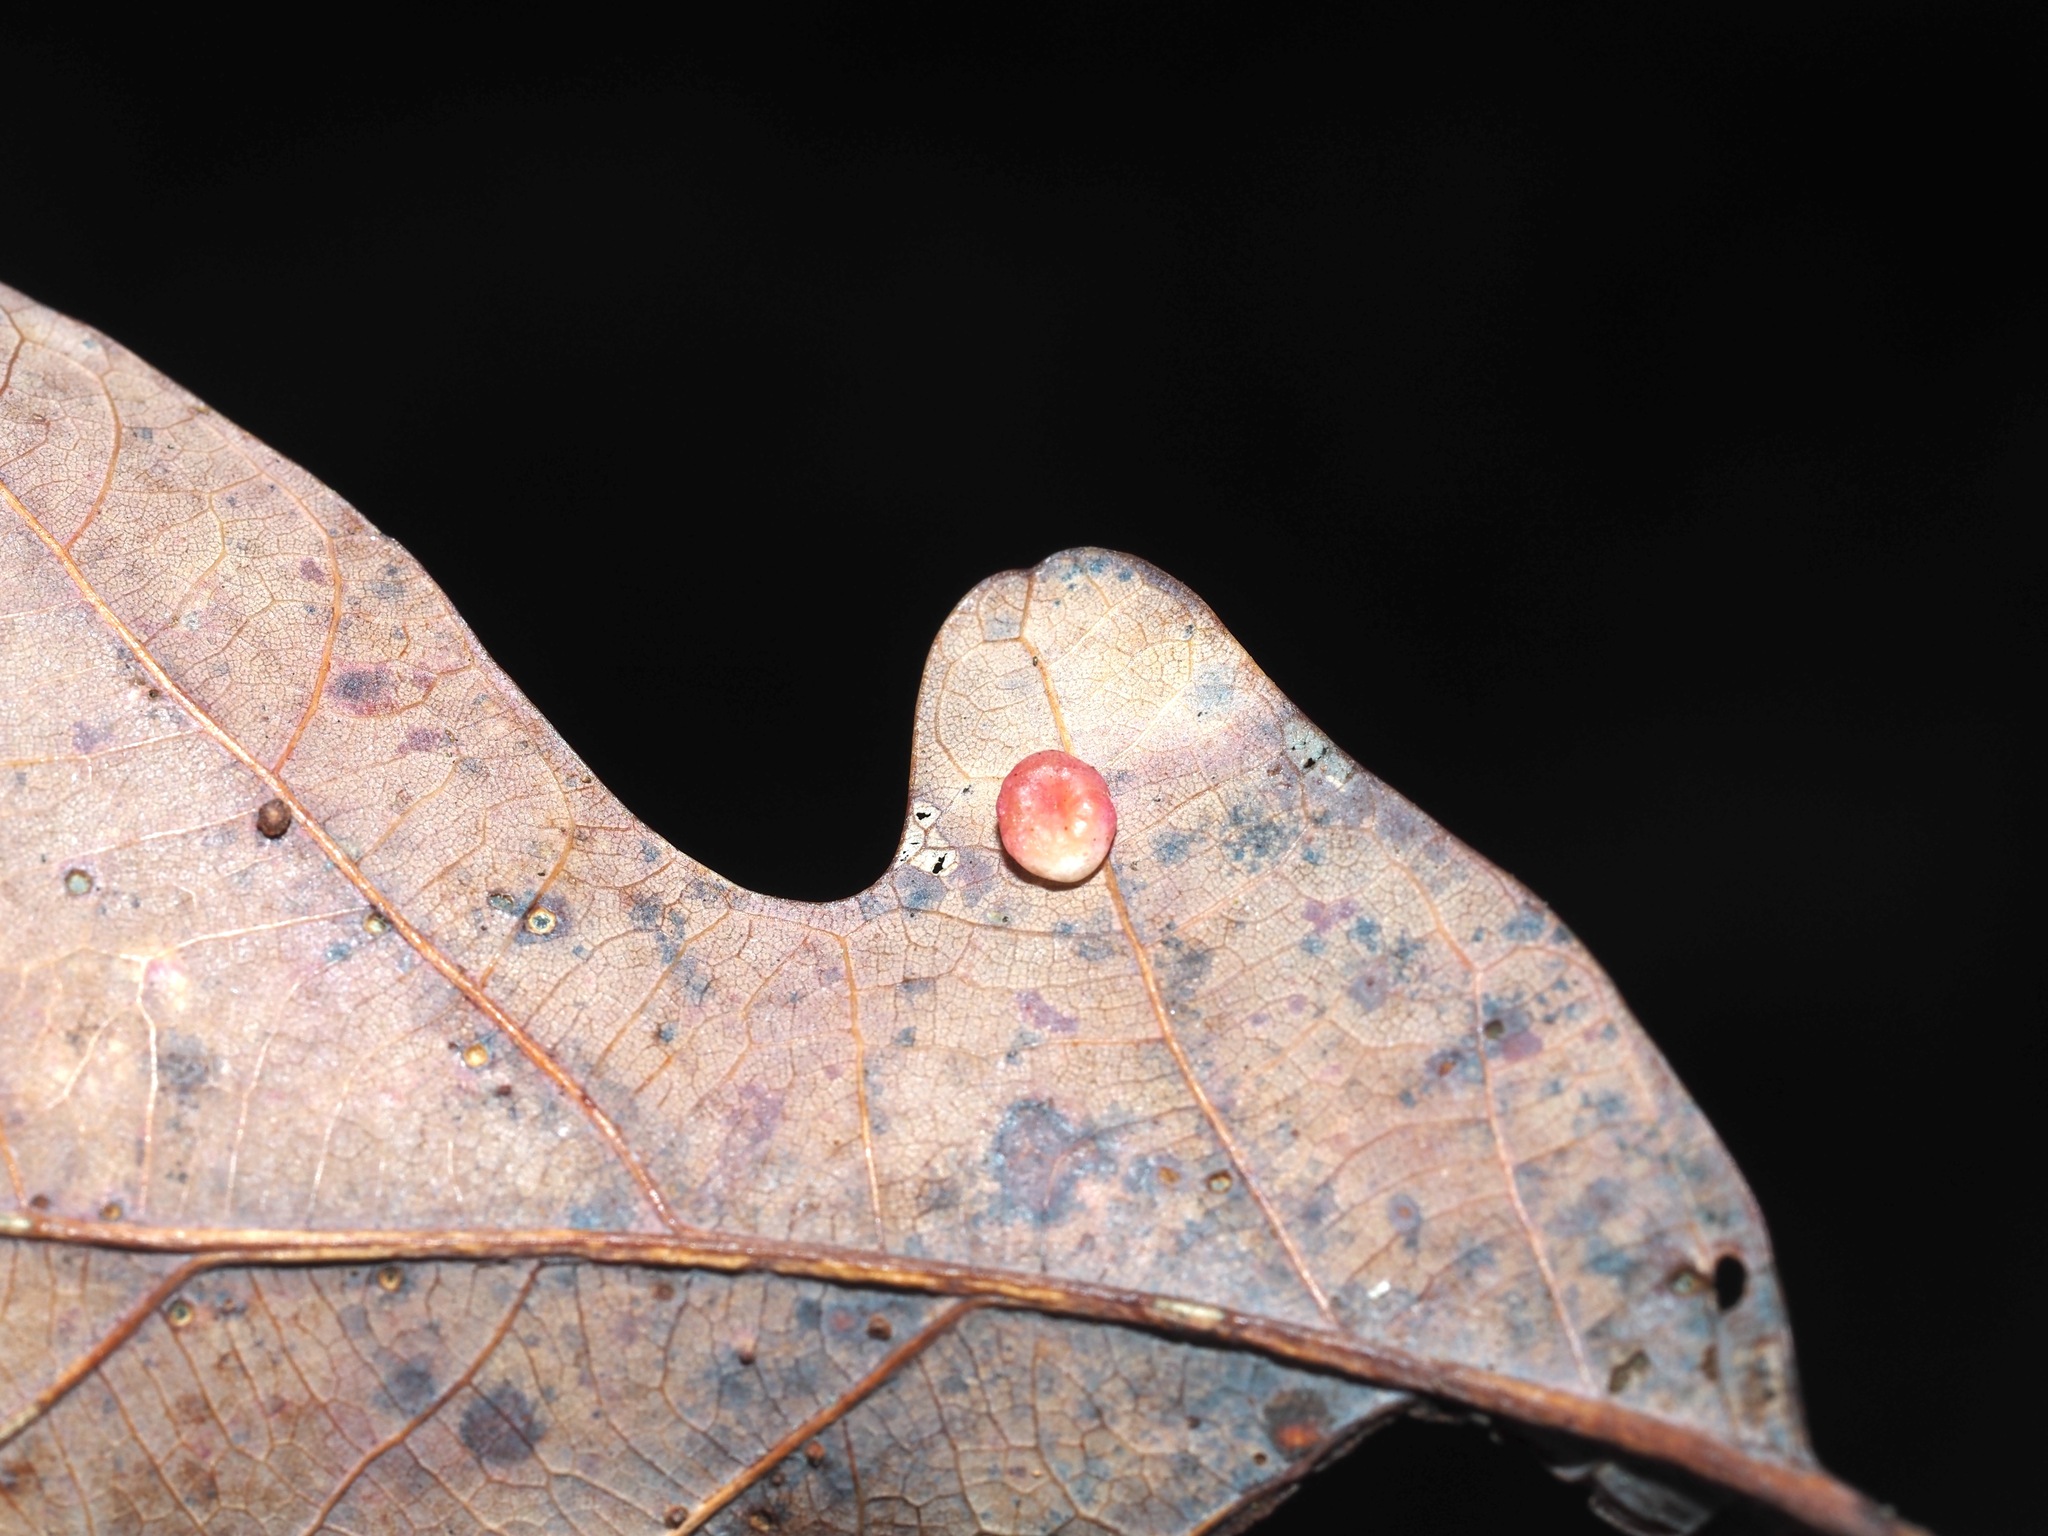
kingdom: Animalia
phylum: Arthropoda
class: Insecta
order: Hymenoptera
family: Cynipidae
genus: Phylloteras
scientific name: Phylloteras
